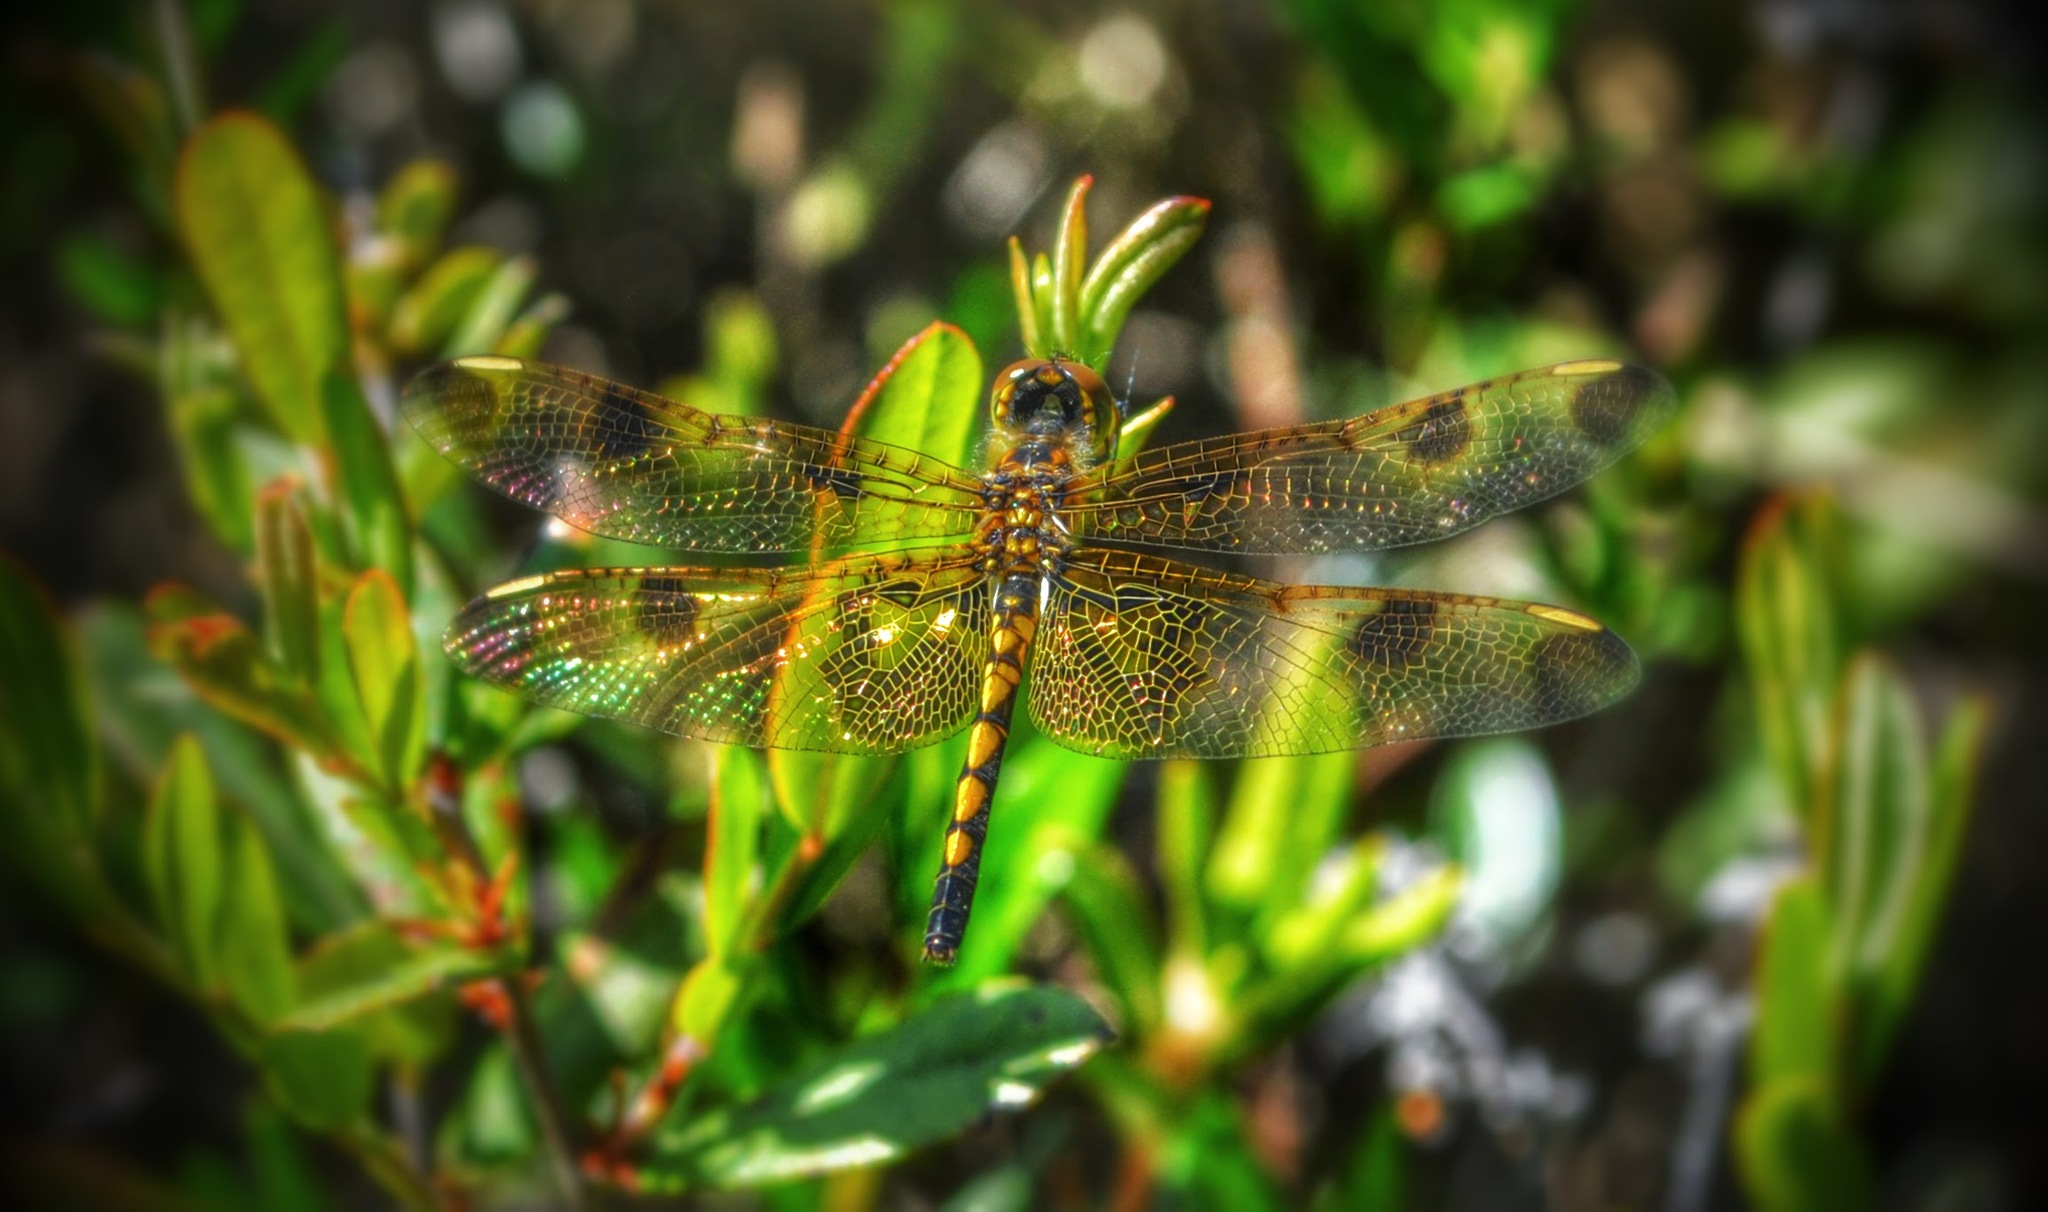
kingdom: Animalia
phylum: Arthropoda
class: Insecta
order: Odonata
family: Libellulidae
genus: Celithemis
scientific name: Celithemis elisa
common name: Calico pennant
